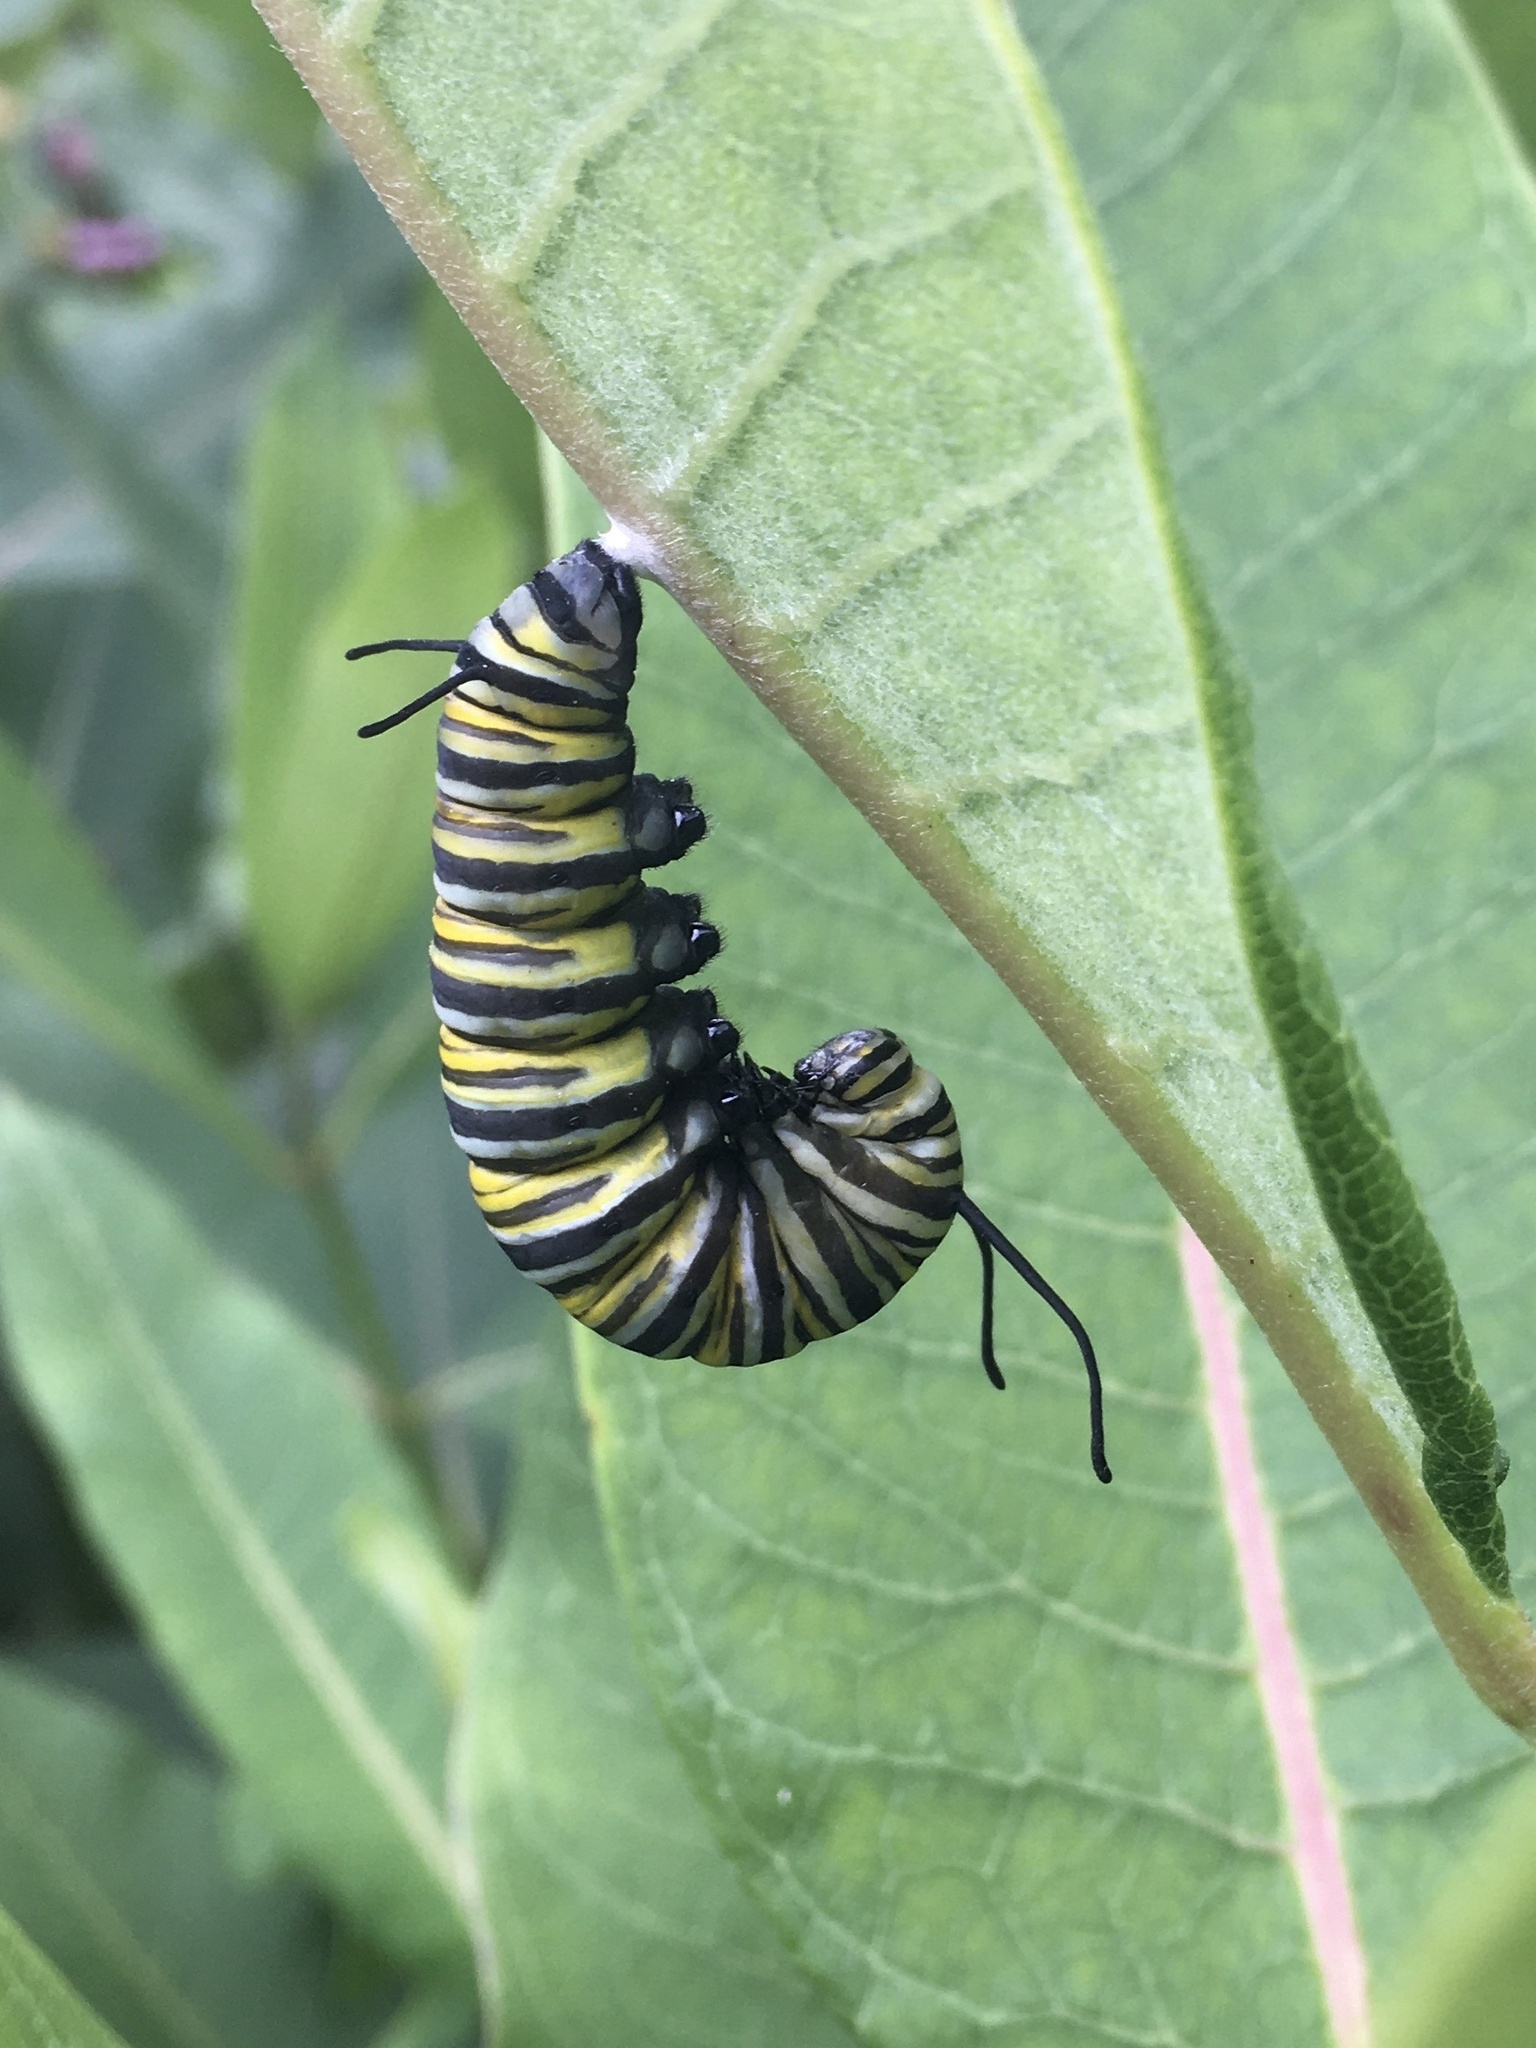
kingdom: Animalia
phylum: Arthropoda
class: Insecta
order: Lepidoptera
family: Nymphalidae
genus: Danaus
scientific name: Danaus plexippus
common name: Monarch
